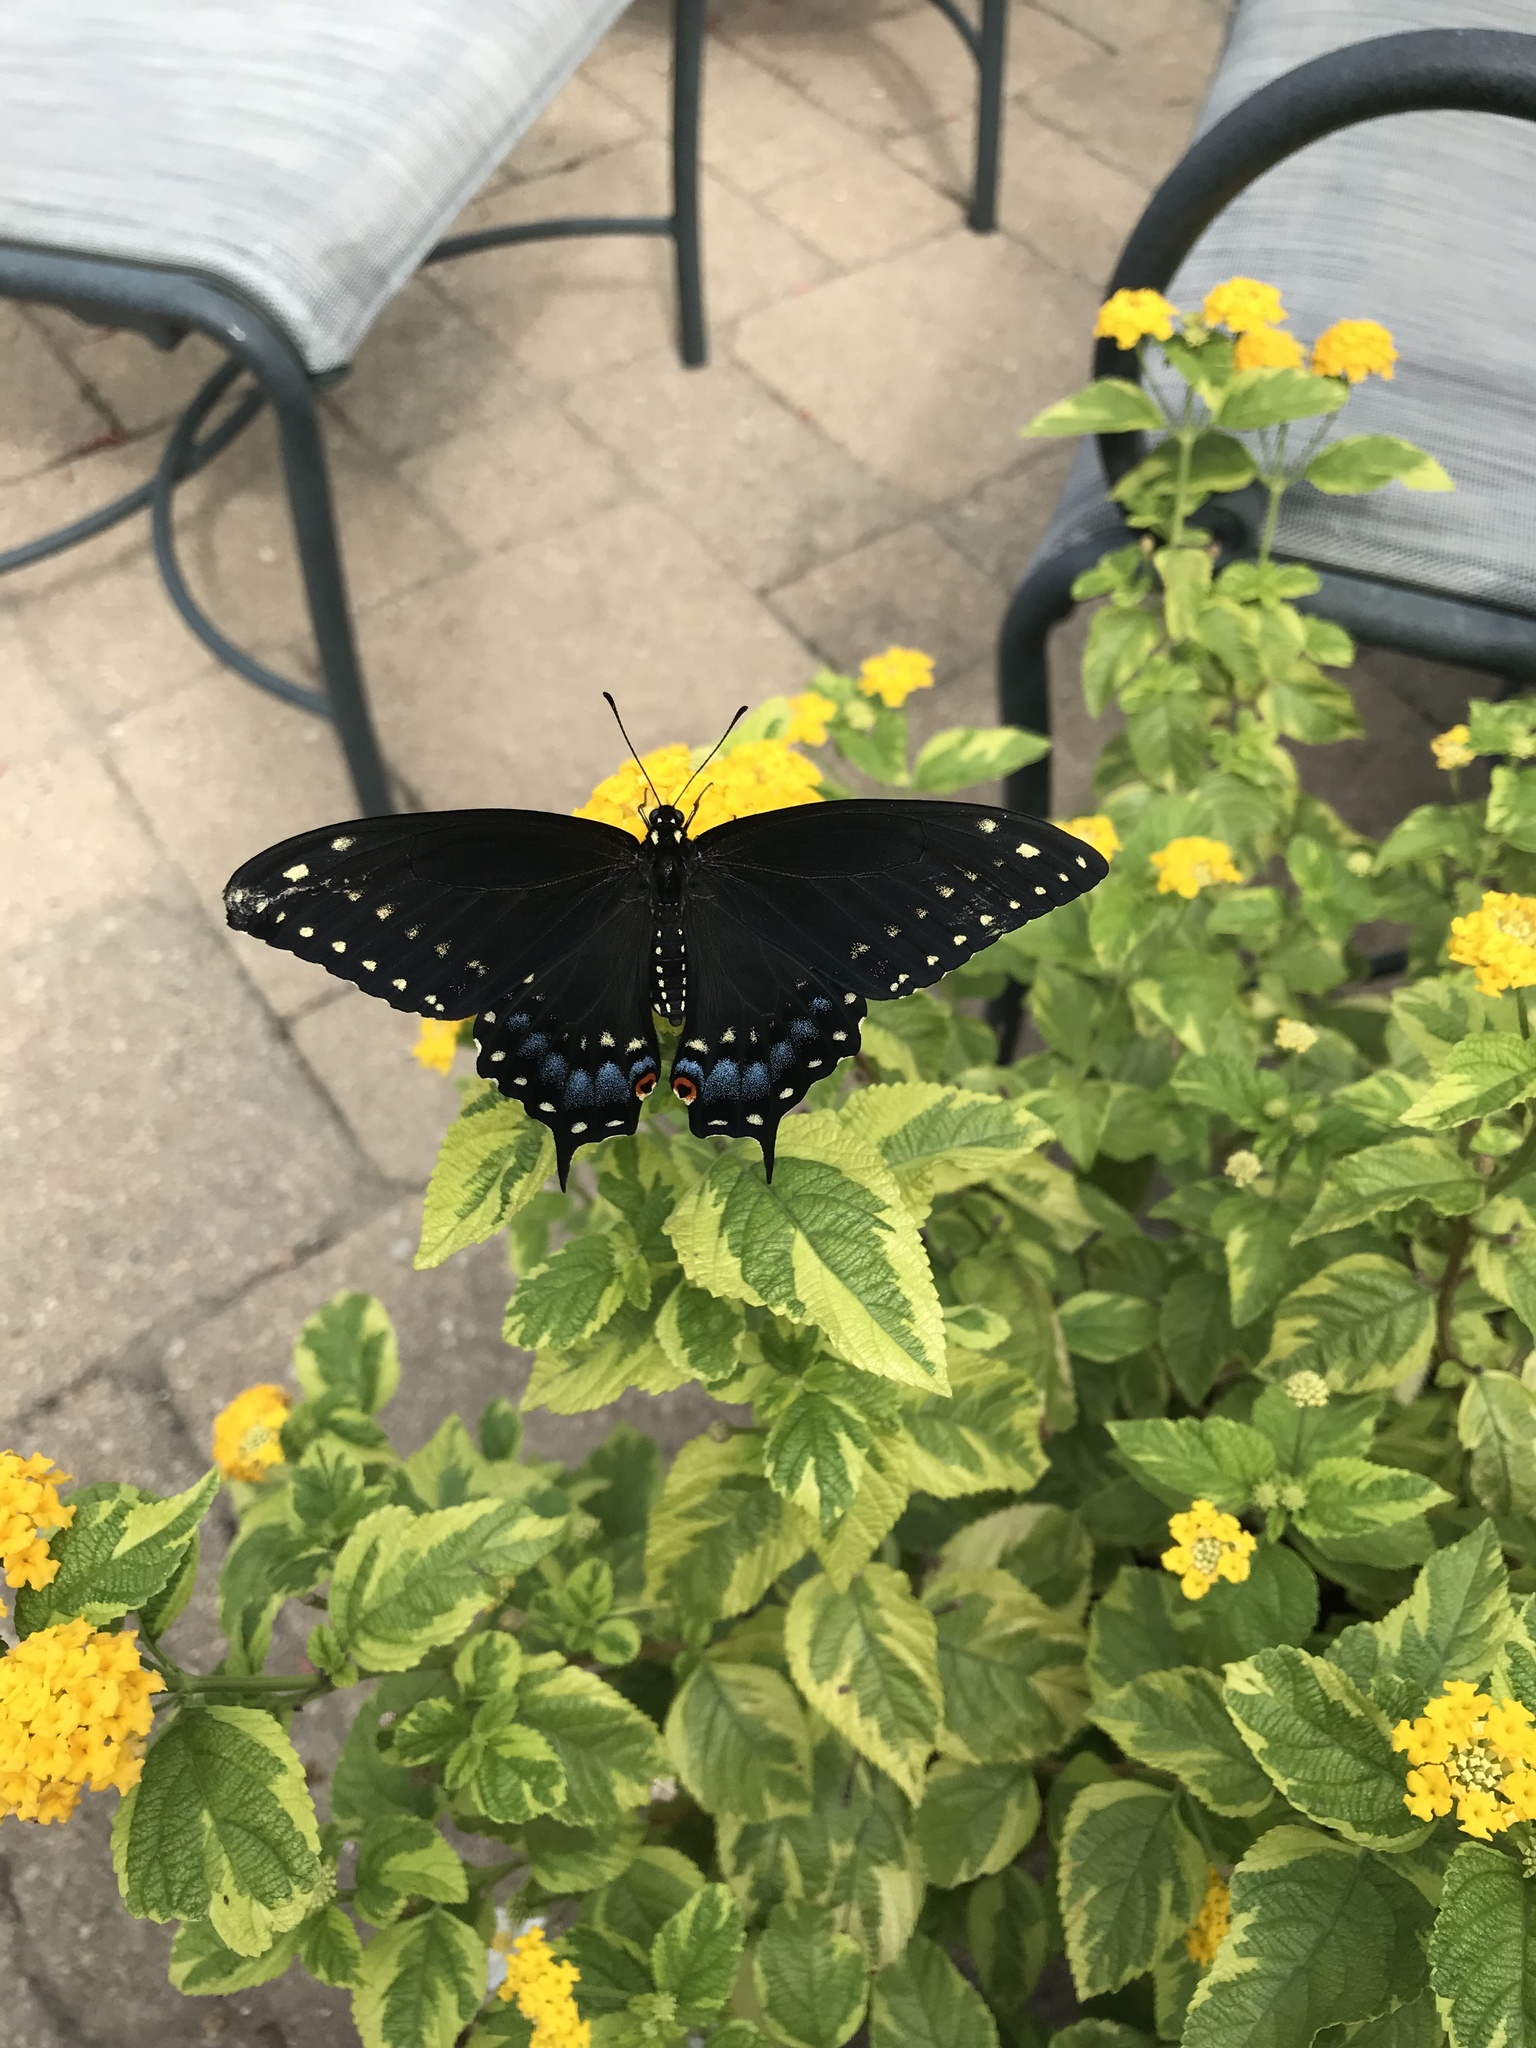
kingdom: Animalia
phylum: Arthropoda
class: Insecta
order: Lepidoptera
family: Papilionidae
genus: Papilio
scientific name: Papilio polyxenes
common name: Black swallowtail
